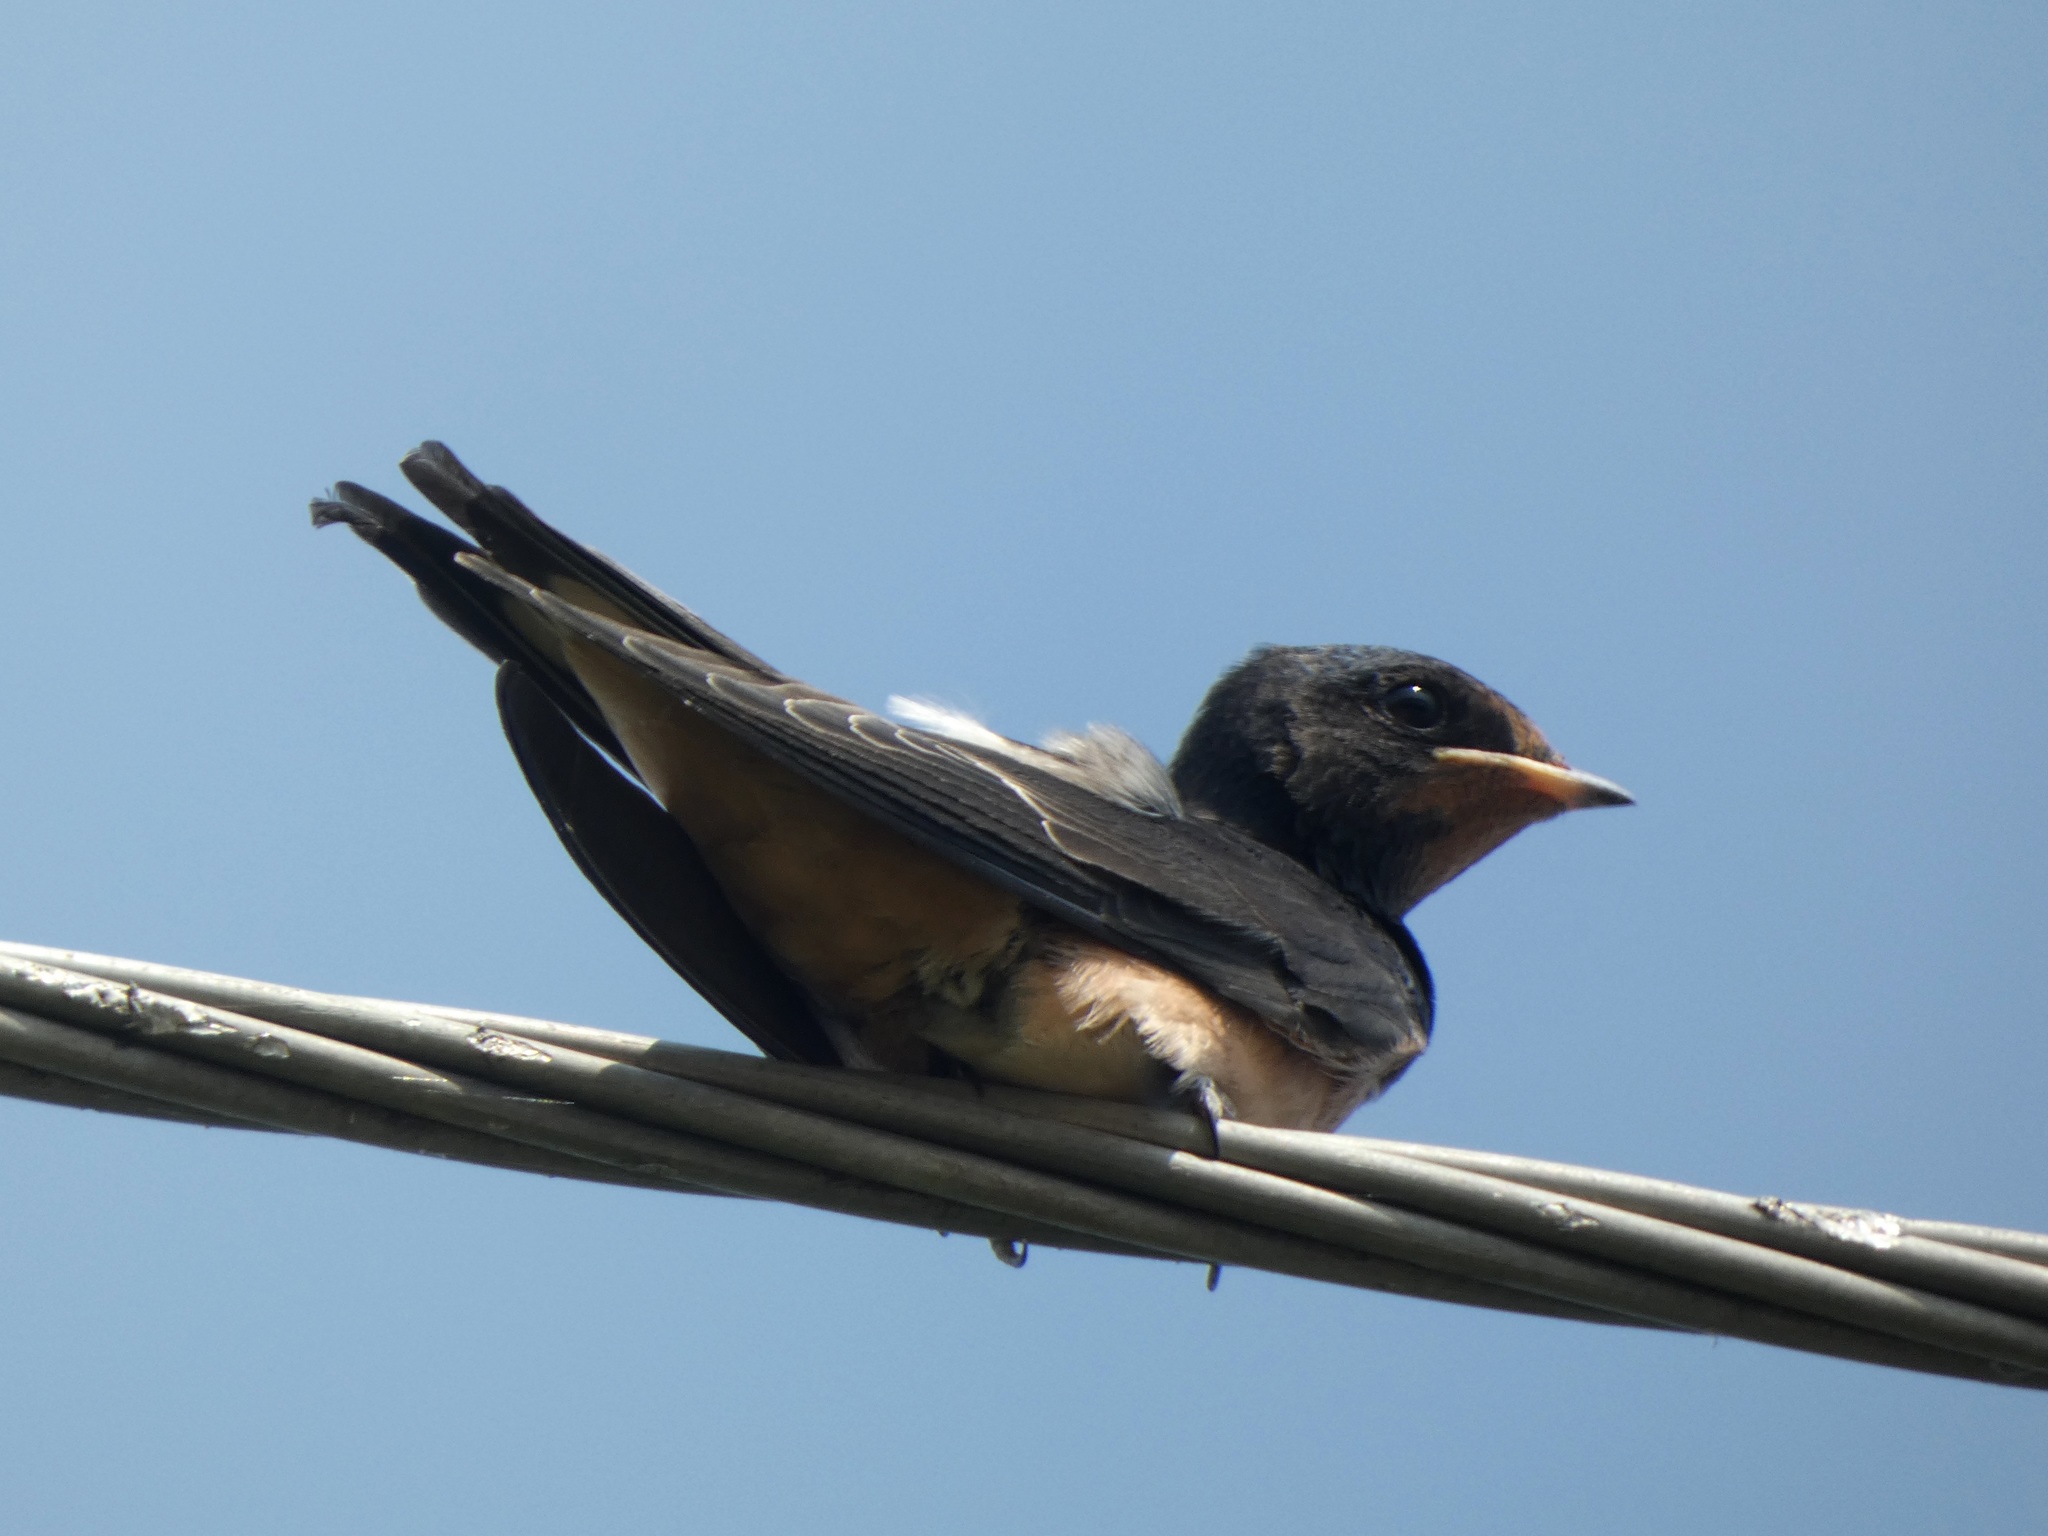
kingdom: Animalia
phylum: Chordata
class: Aves
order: Passeriformes
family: Hirundinidae
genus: Hirundo
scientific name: Hirundo rustica
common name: Barn swallow
